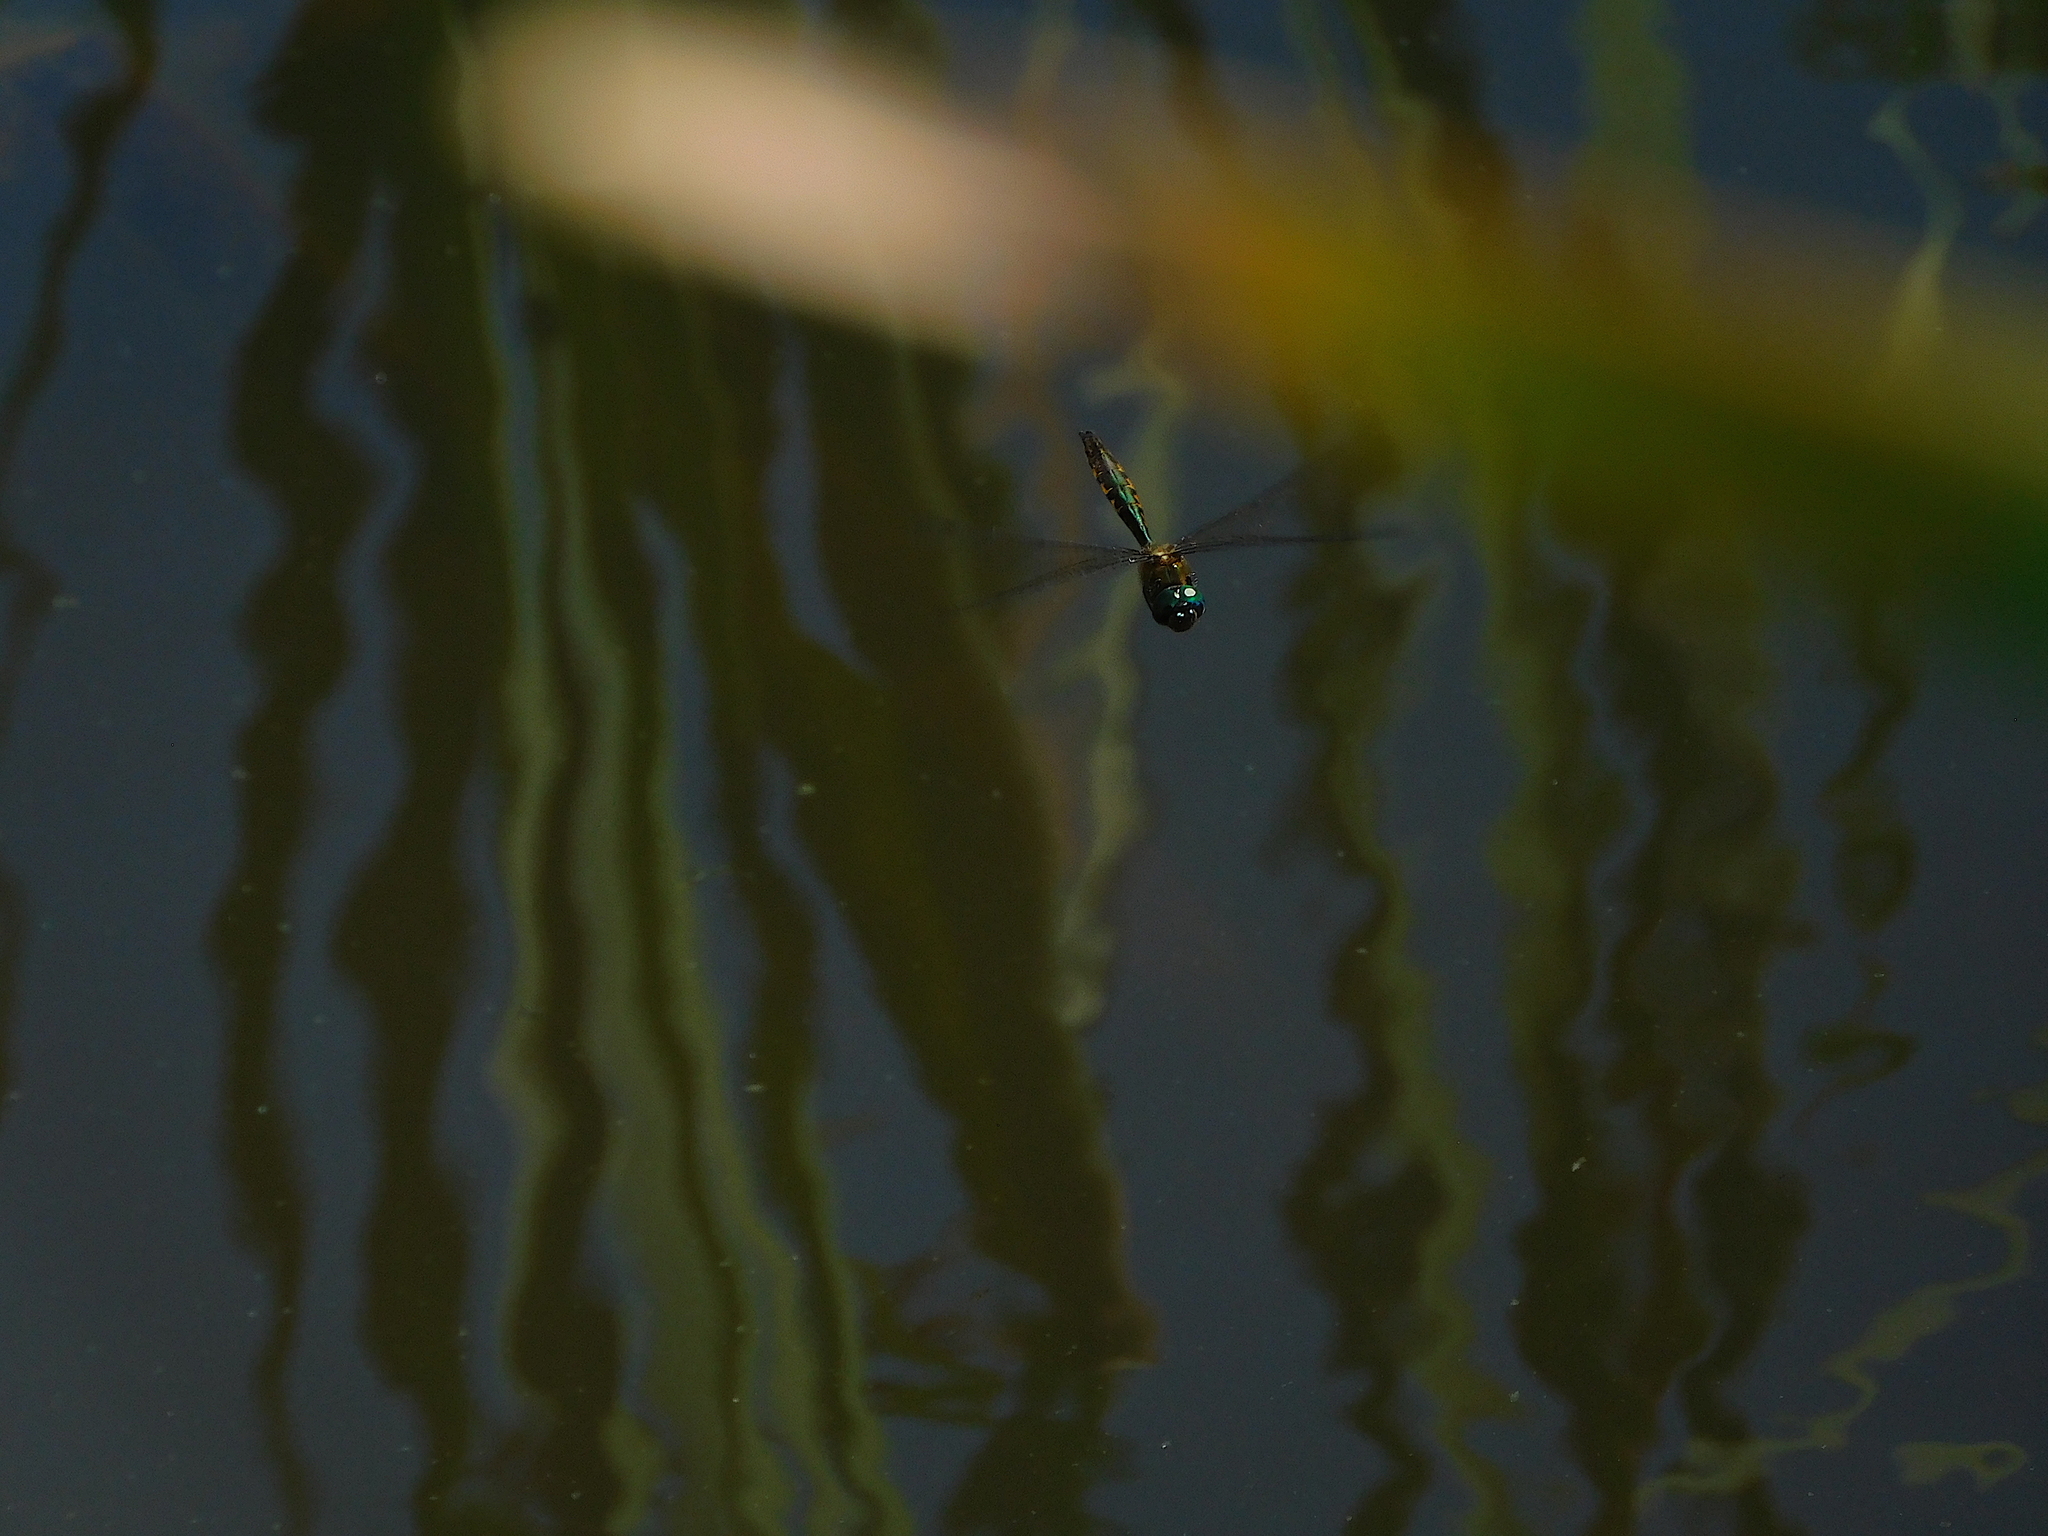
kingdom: Animalia
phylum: Arthropoda
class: Insecta
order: Odonata
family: Corduliidae
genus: Hemicordulia
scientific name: Hemicordulia armstrongi
